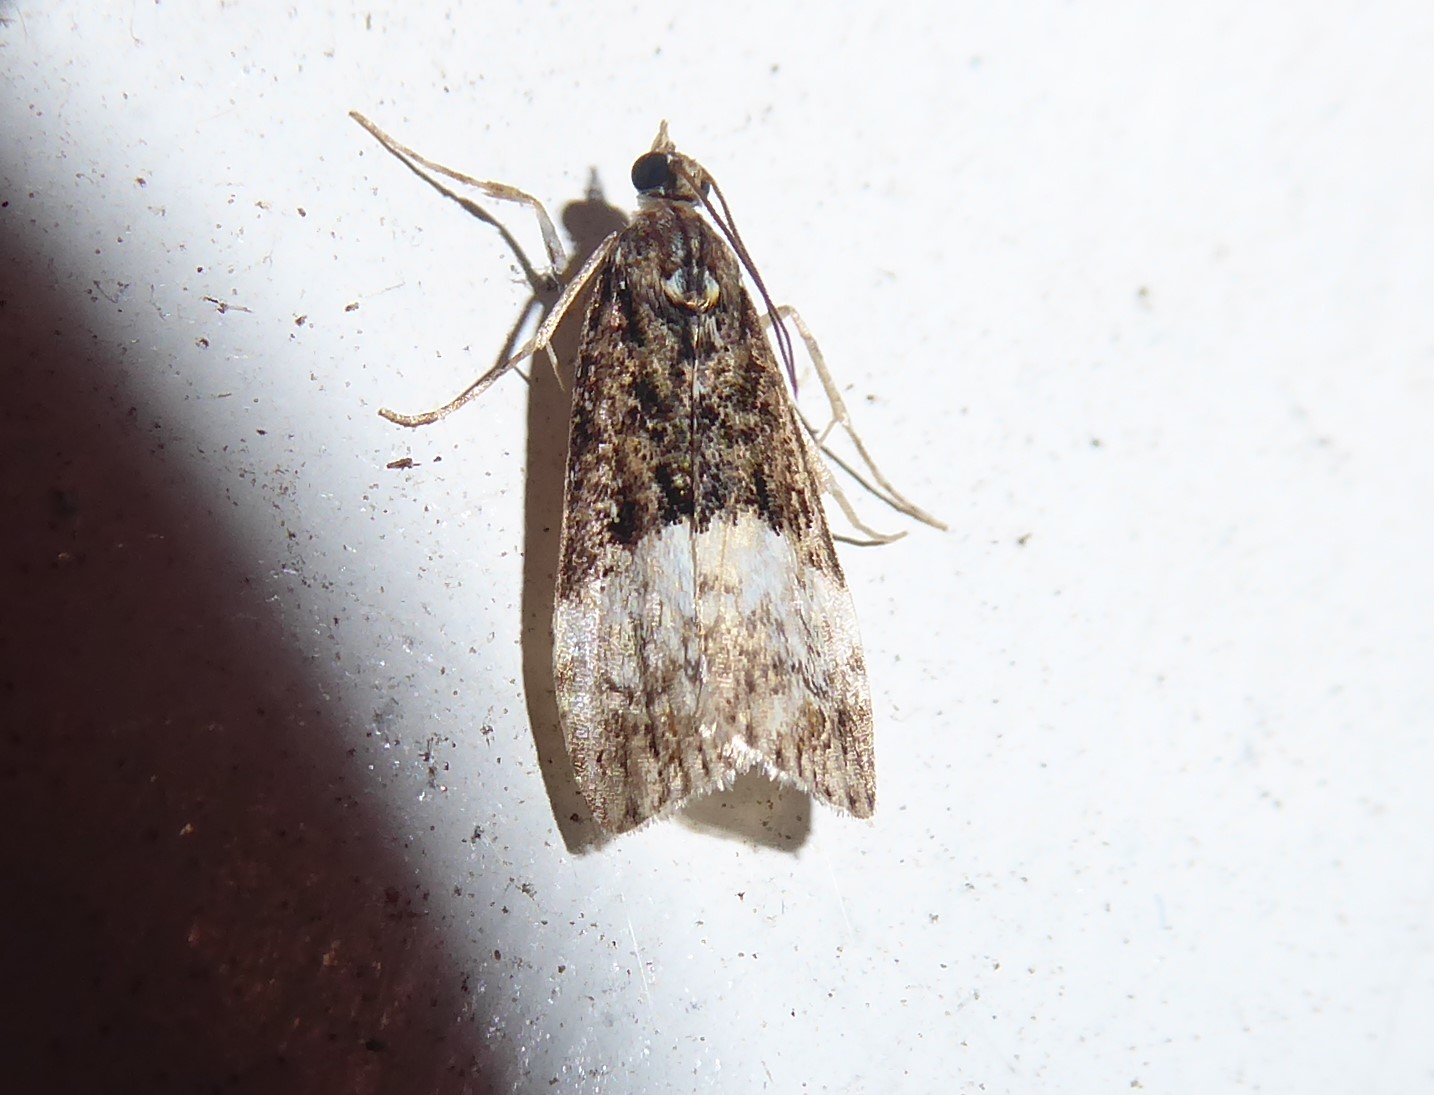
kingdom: Animalia
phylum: Arthropoda
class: Insecta
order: Lepidoptera
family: Crambidae
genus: Scoparia
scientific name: Scoparia minusculalis
